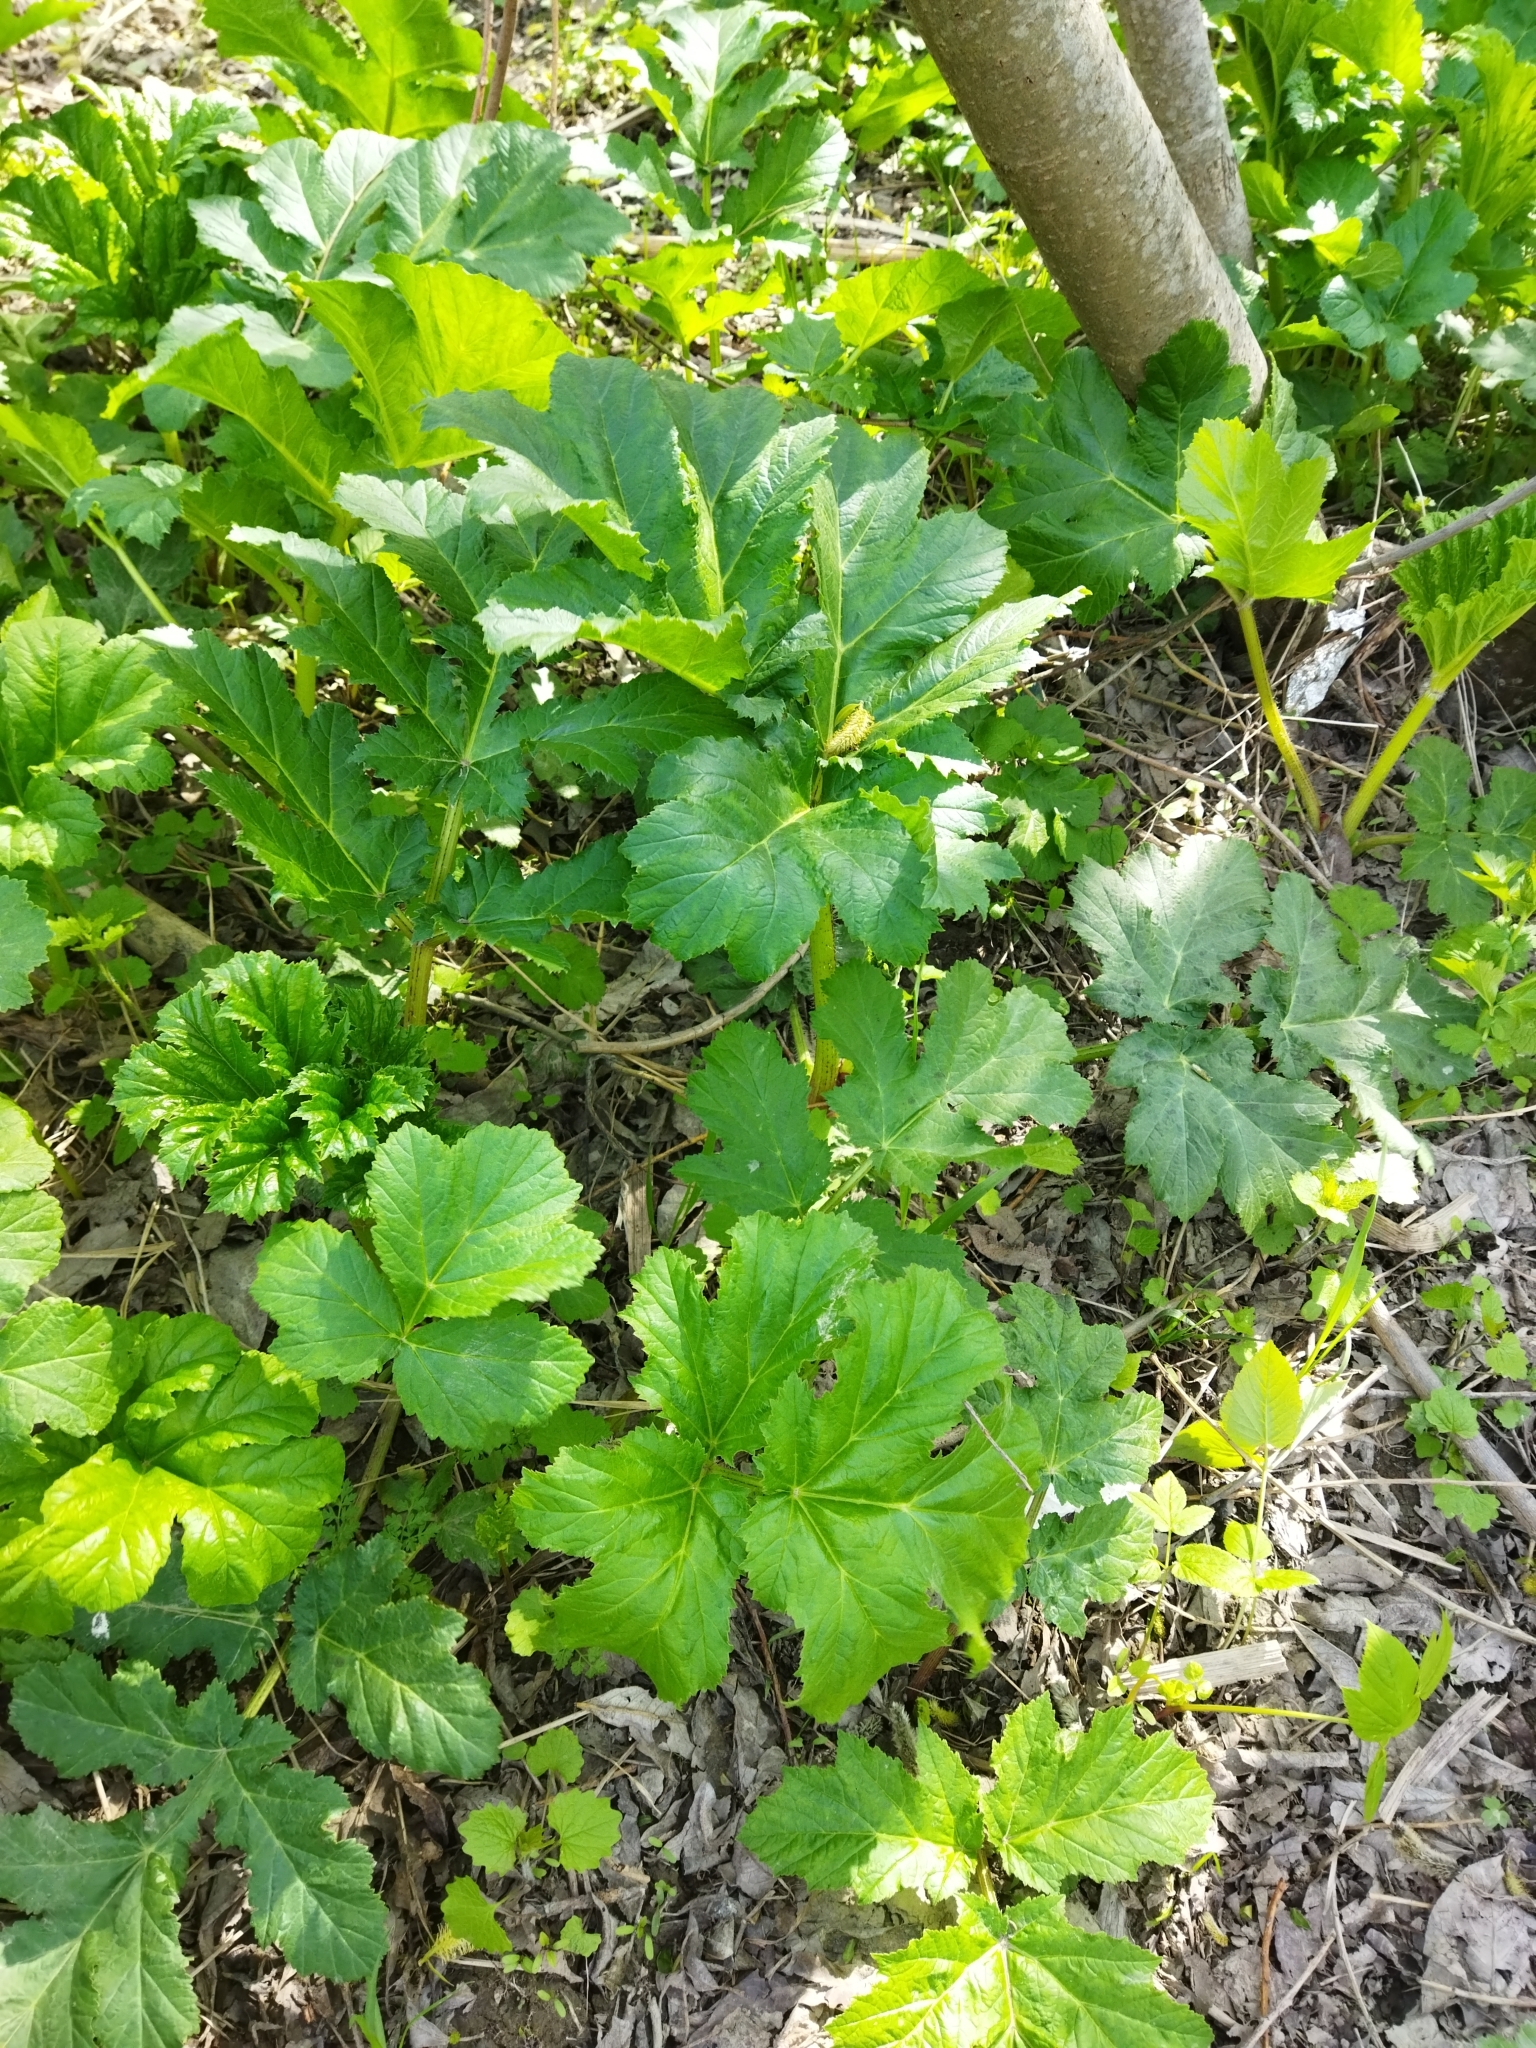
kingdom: Plantae
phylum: Tracheophyta
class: Magnoliopsida
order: Apiales
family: Apiaceae
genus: Heracleum
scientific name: Heracleum sosnowskyi
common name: Sosnowsky's hogweed
